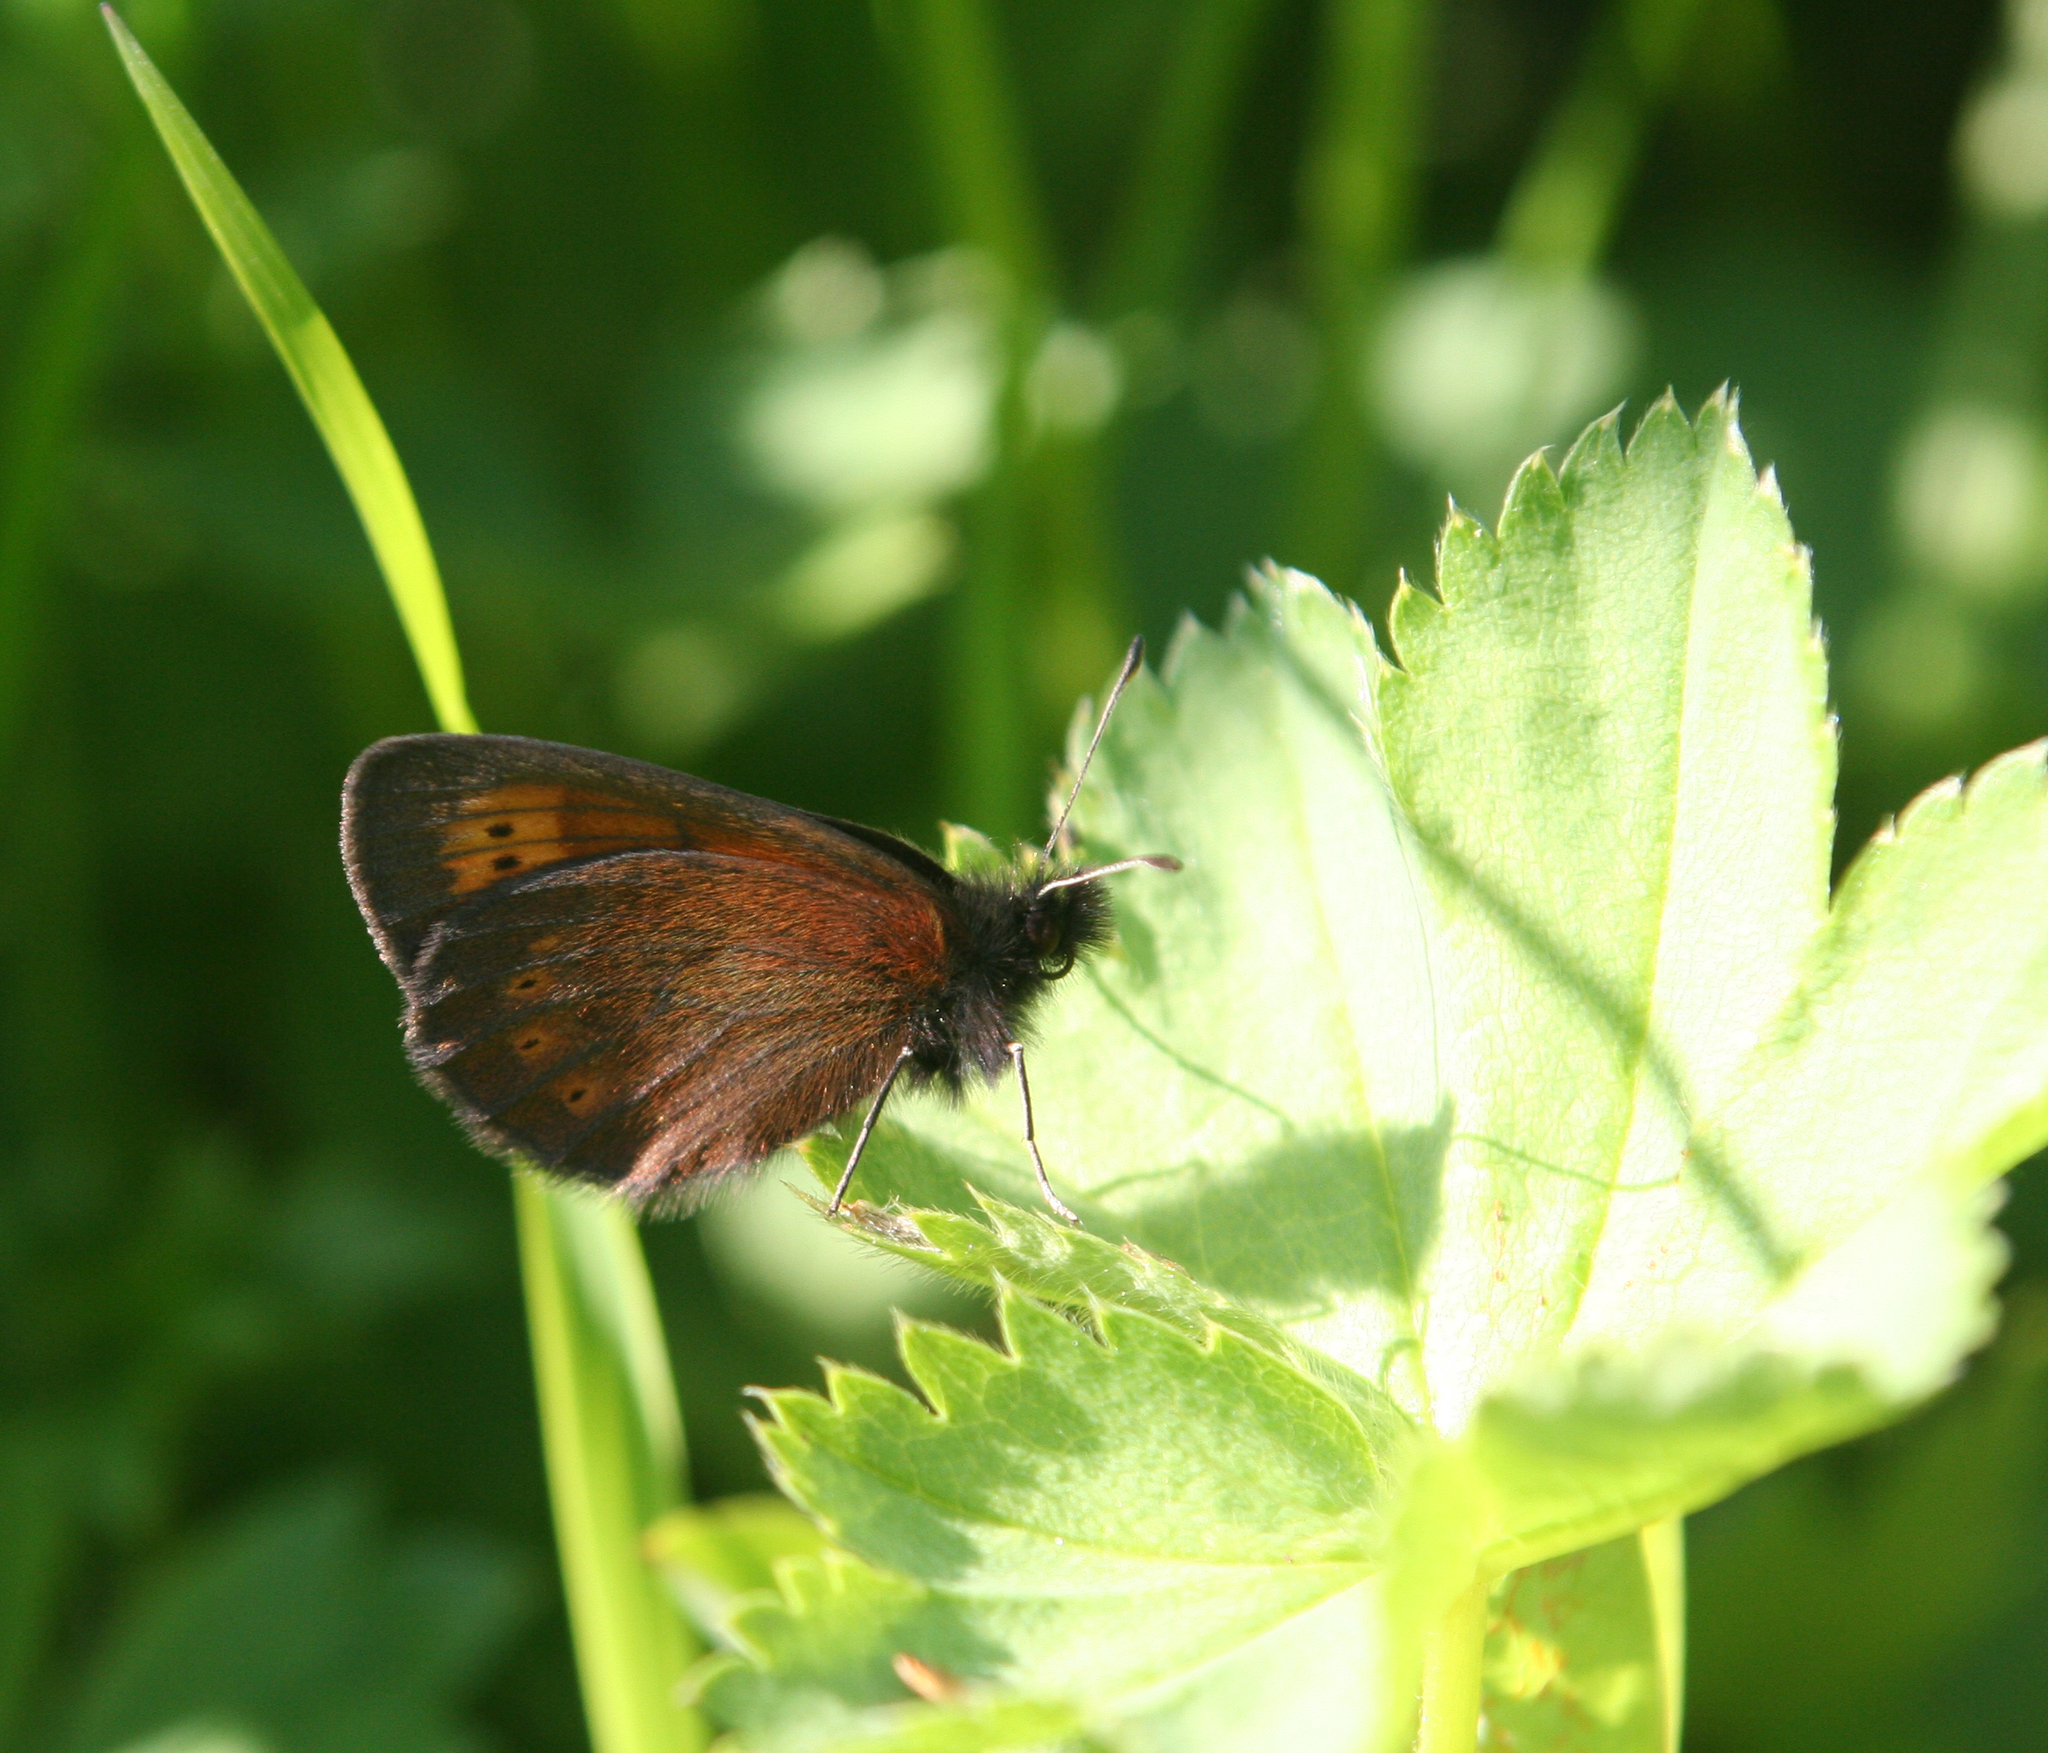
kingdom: Animalia
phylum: Arthropoda
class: Insecta
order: Lepidoptera
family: Nymphalidae
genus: Erebia
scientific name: Erebia kefersteinii
